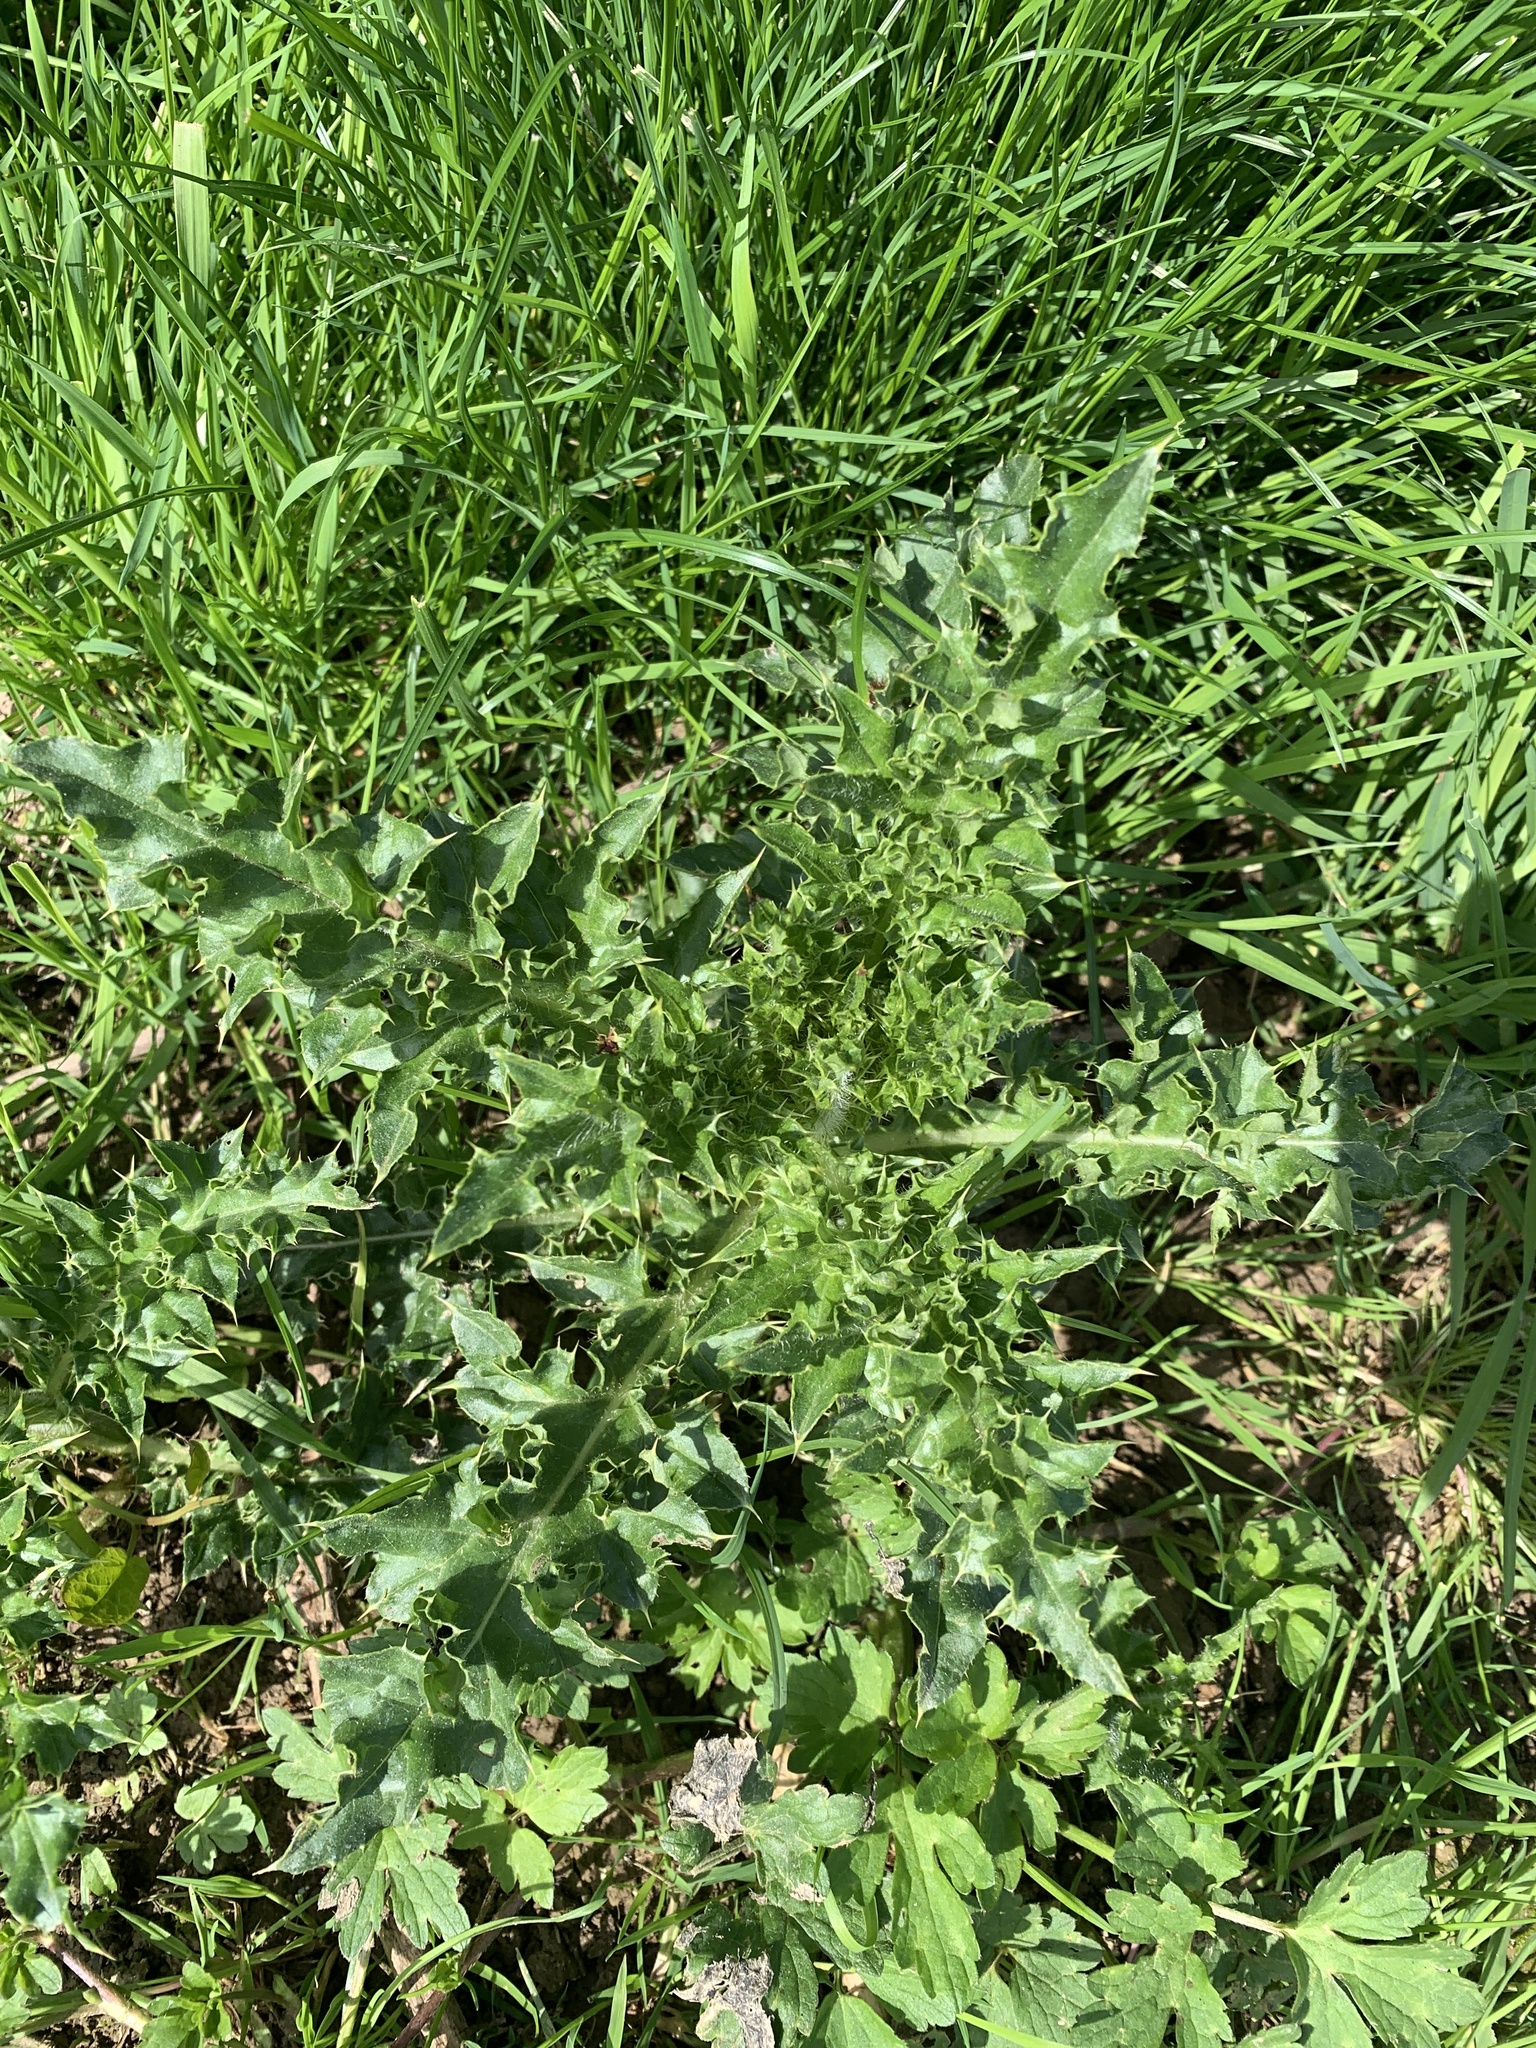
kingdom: Plantae
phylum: Tracheophyta
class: Magnoliopsida
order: Asterales
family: Asteraceae
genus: Cirsium
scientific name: Cirsium arvense
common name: Creeping thistle
